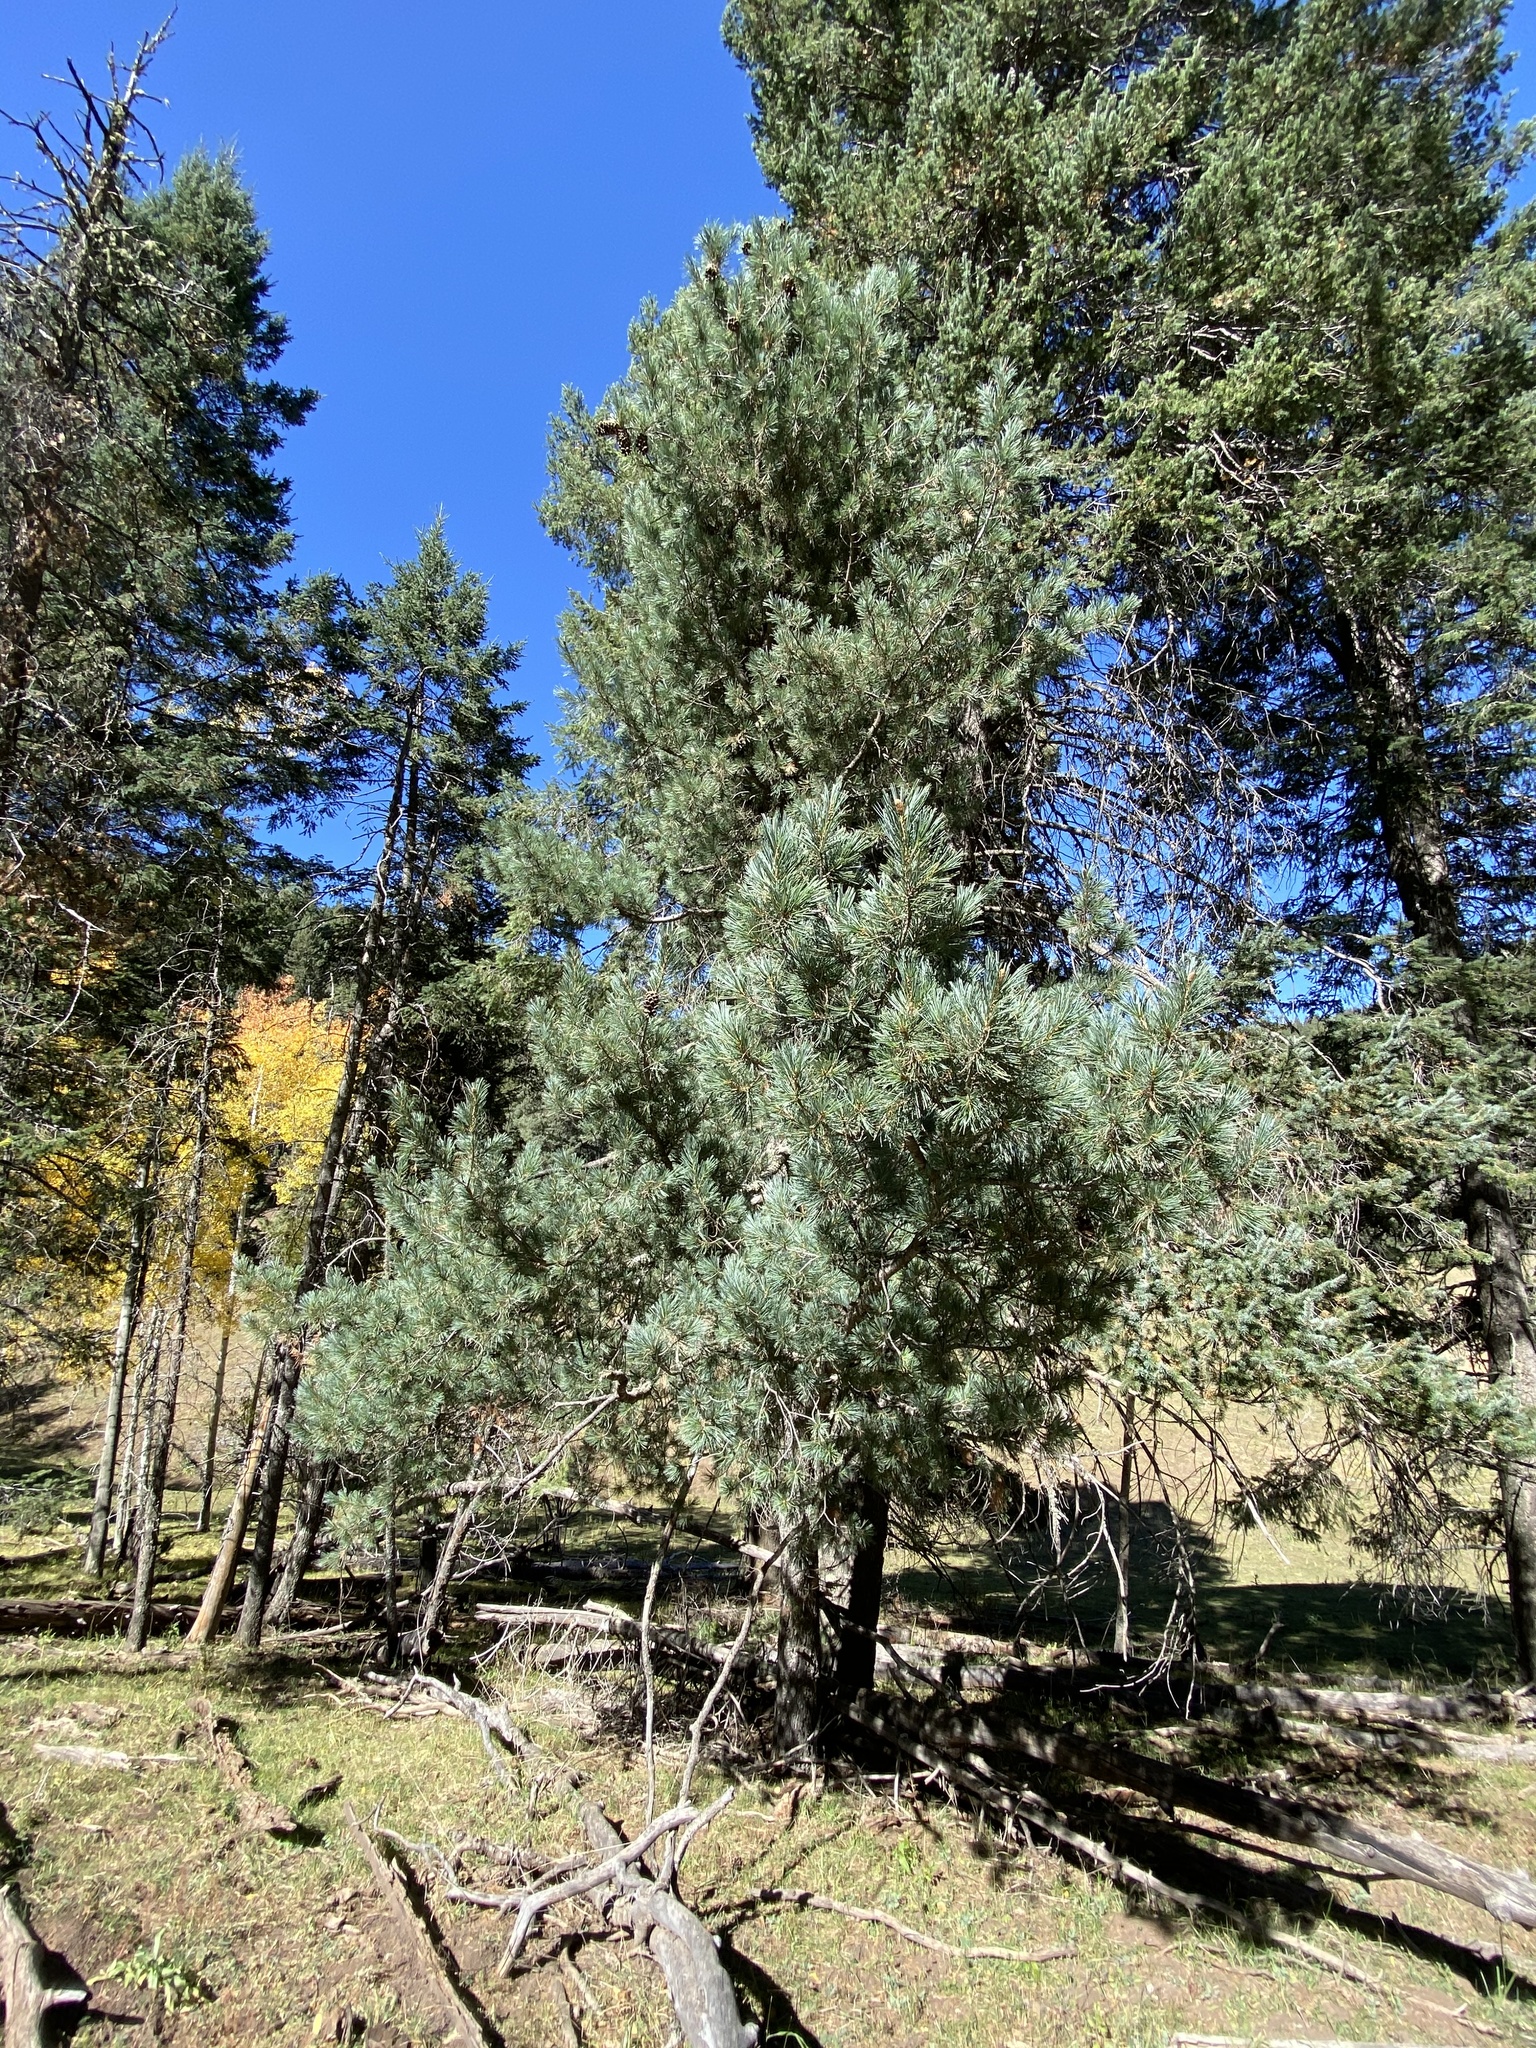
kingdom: Plantae
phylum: Tracheophyta
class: Pinopsida
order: Pinales
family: Pinaceae
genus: Pinus
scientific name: Pinus strobiformis
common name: Southwestern white pine
